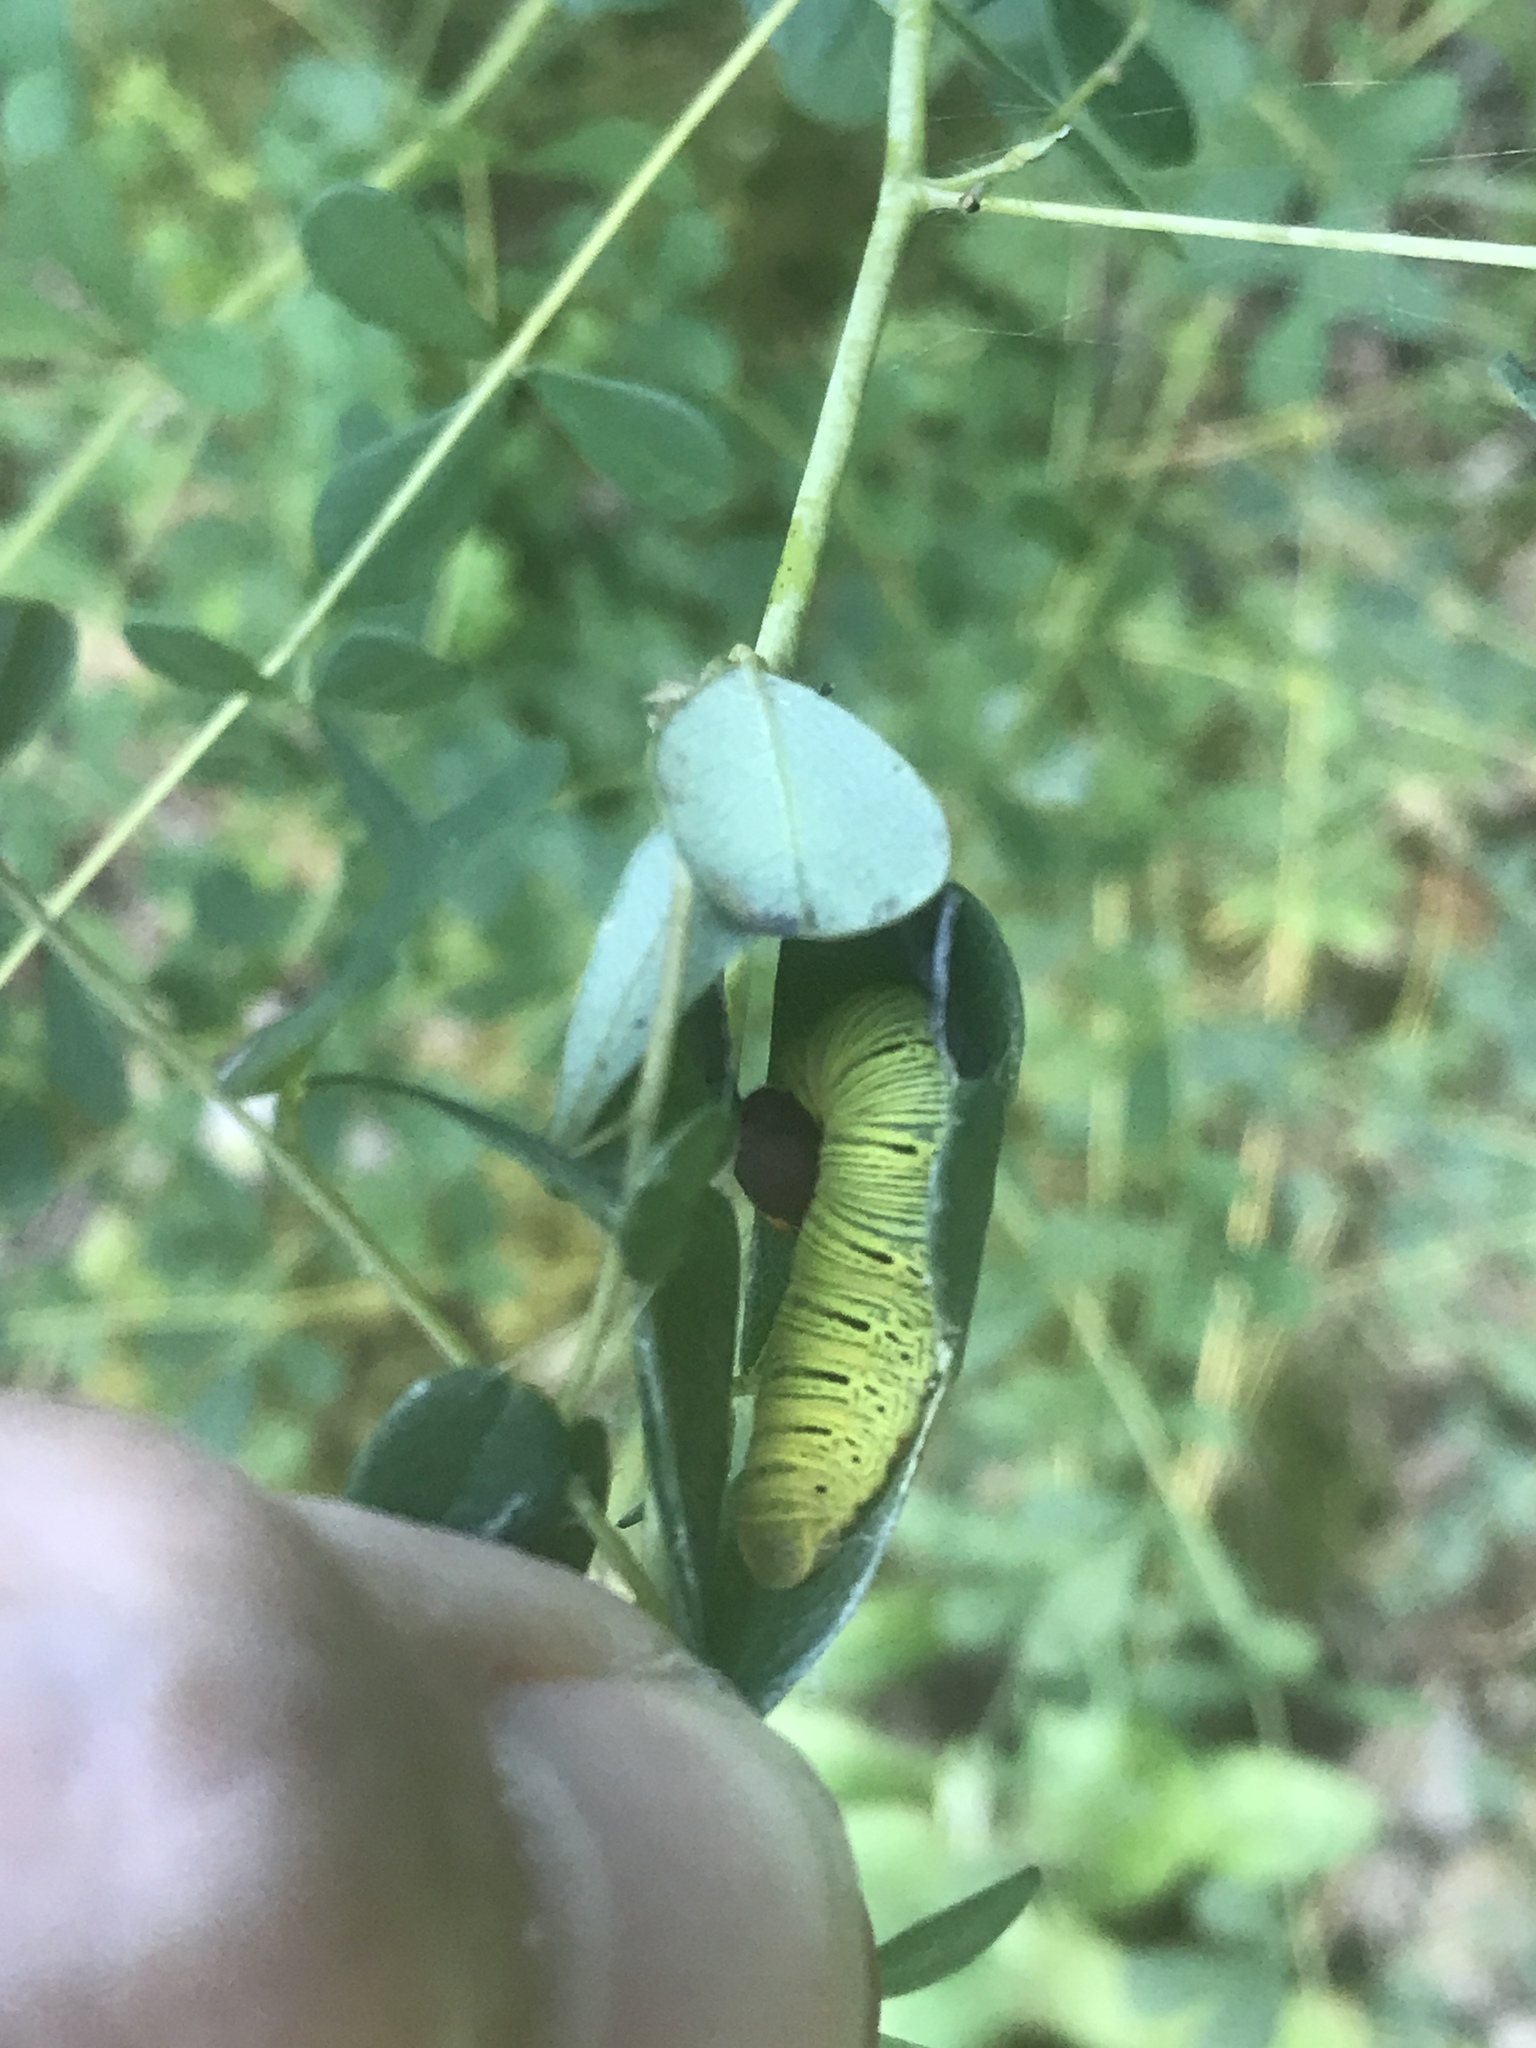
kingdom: Animalia
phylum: Arthropoda
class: Insecta
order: Lepidoptera
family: Hesperiidae
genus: Epargyreus
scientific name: Epargyreus clarus
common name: Silver-spotted skipper
